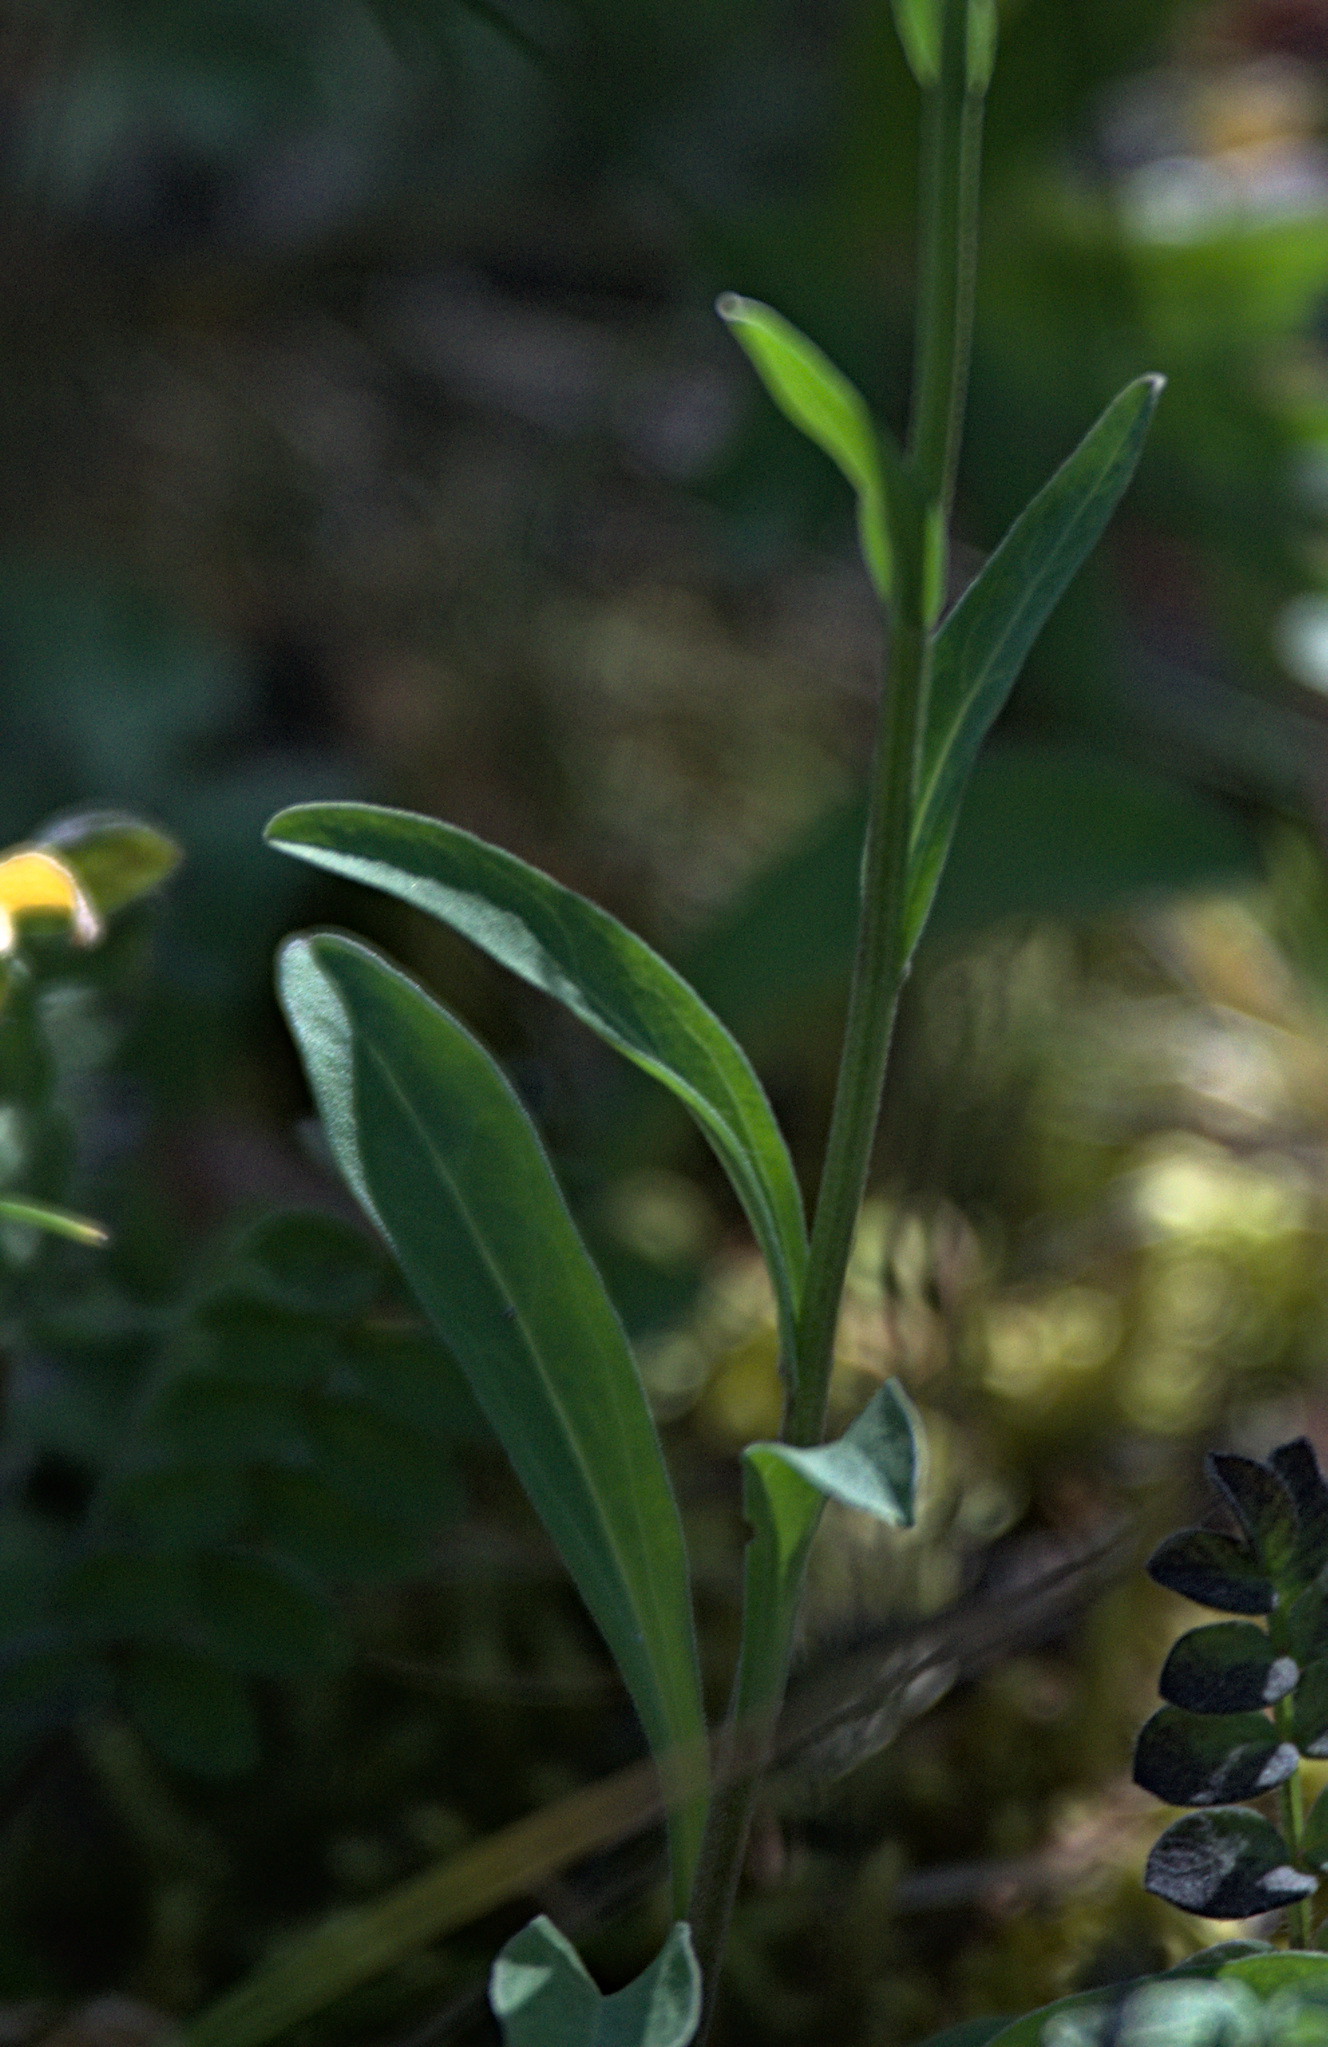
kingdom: Plantae
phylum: Tracheophyta
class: Magnoliopsida
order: Asterales
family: Asteraceae
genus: Heteropappus
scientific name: Heteropappus altaicus
